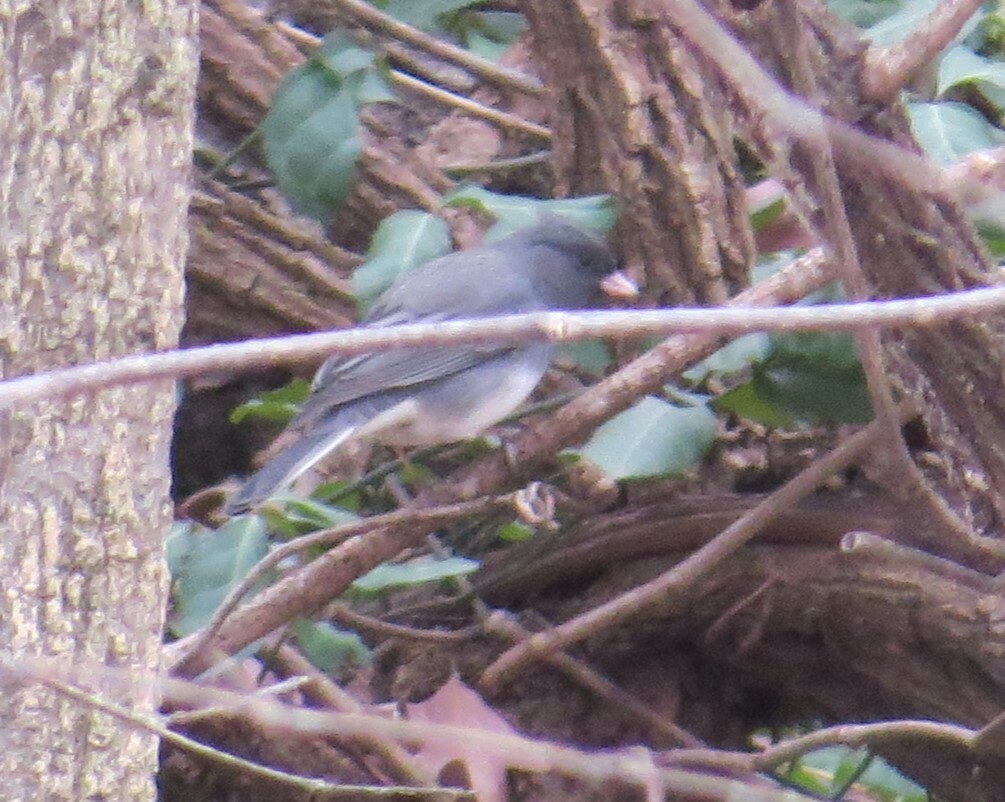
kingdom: Animalia
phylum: Chordata
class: Aves
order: Passeriformes
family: Passerellidae
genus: Junco
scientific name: Junco hyemalis
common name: Dark-eyed junco
